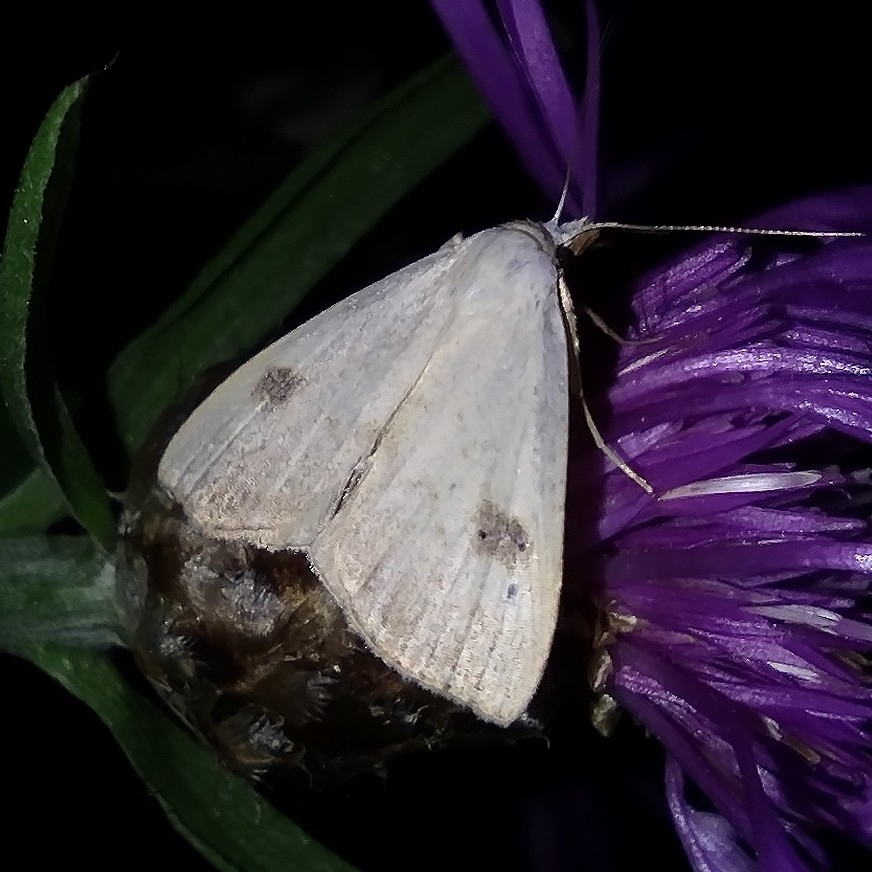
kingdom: Animalia
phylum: Arthropoda
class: Insecta
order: Lepidoptera
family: Erebidae
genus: Rivula
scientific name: Rivula sericealis
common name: Straw dot
